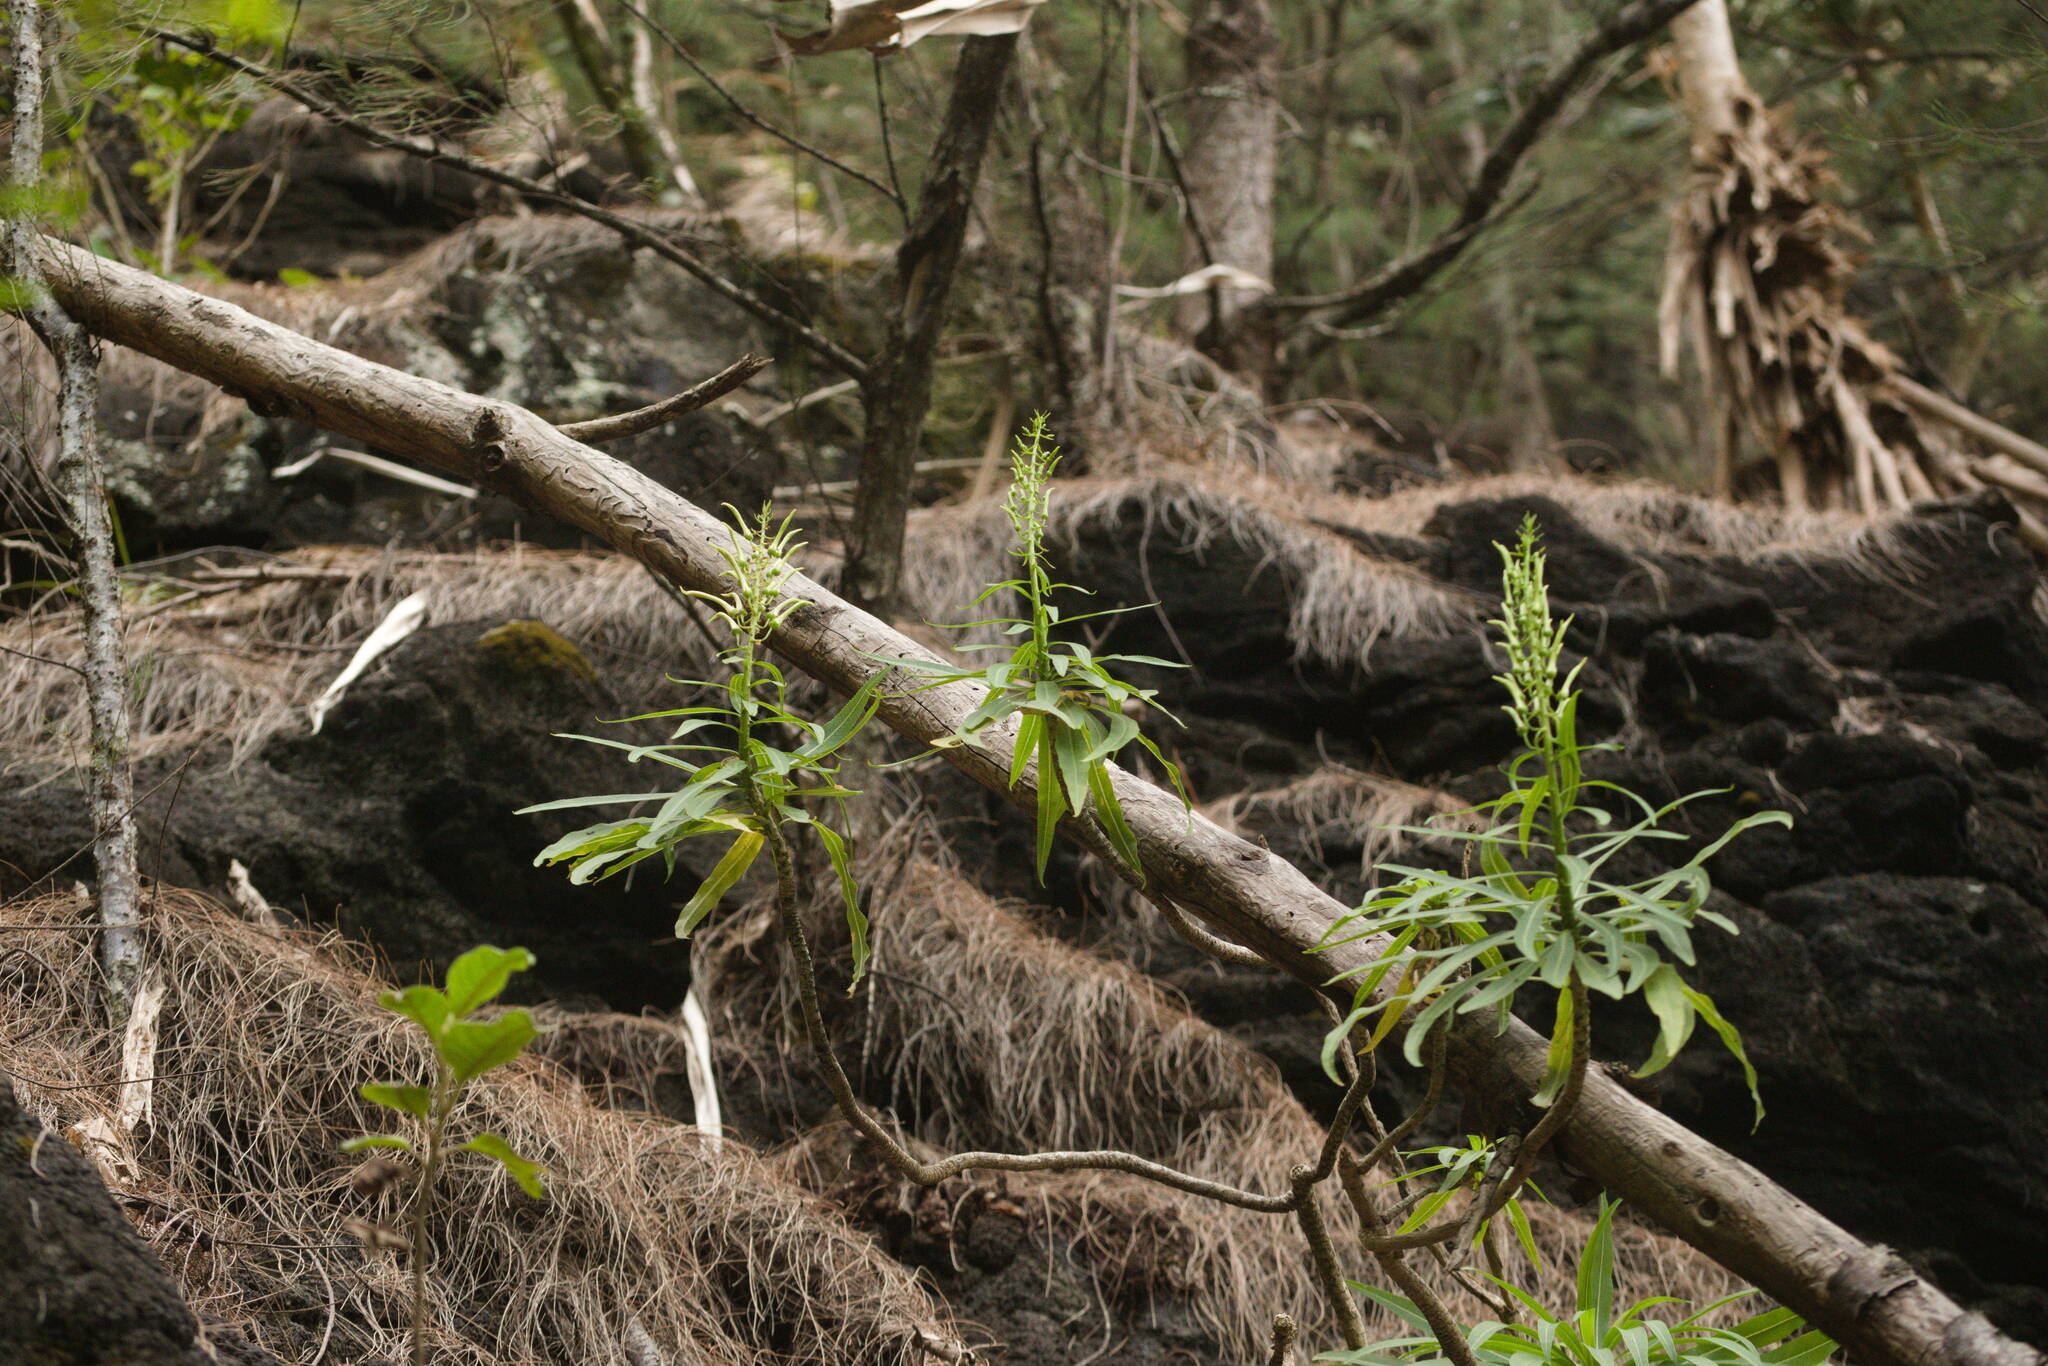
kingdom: Plantae
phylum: Tracheophyta
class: Magnoliopsida
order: Asterales
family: Campanulaceae
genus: Lobelia
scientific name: Lobelia niihauensis
